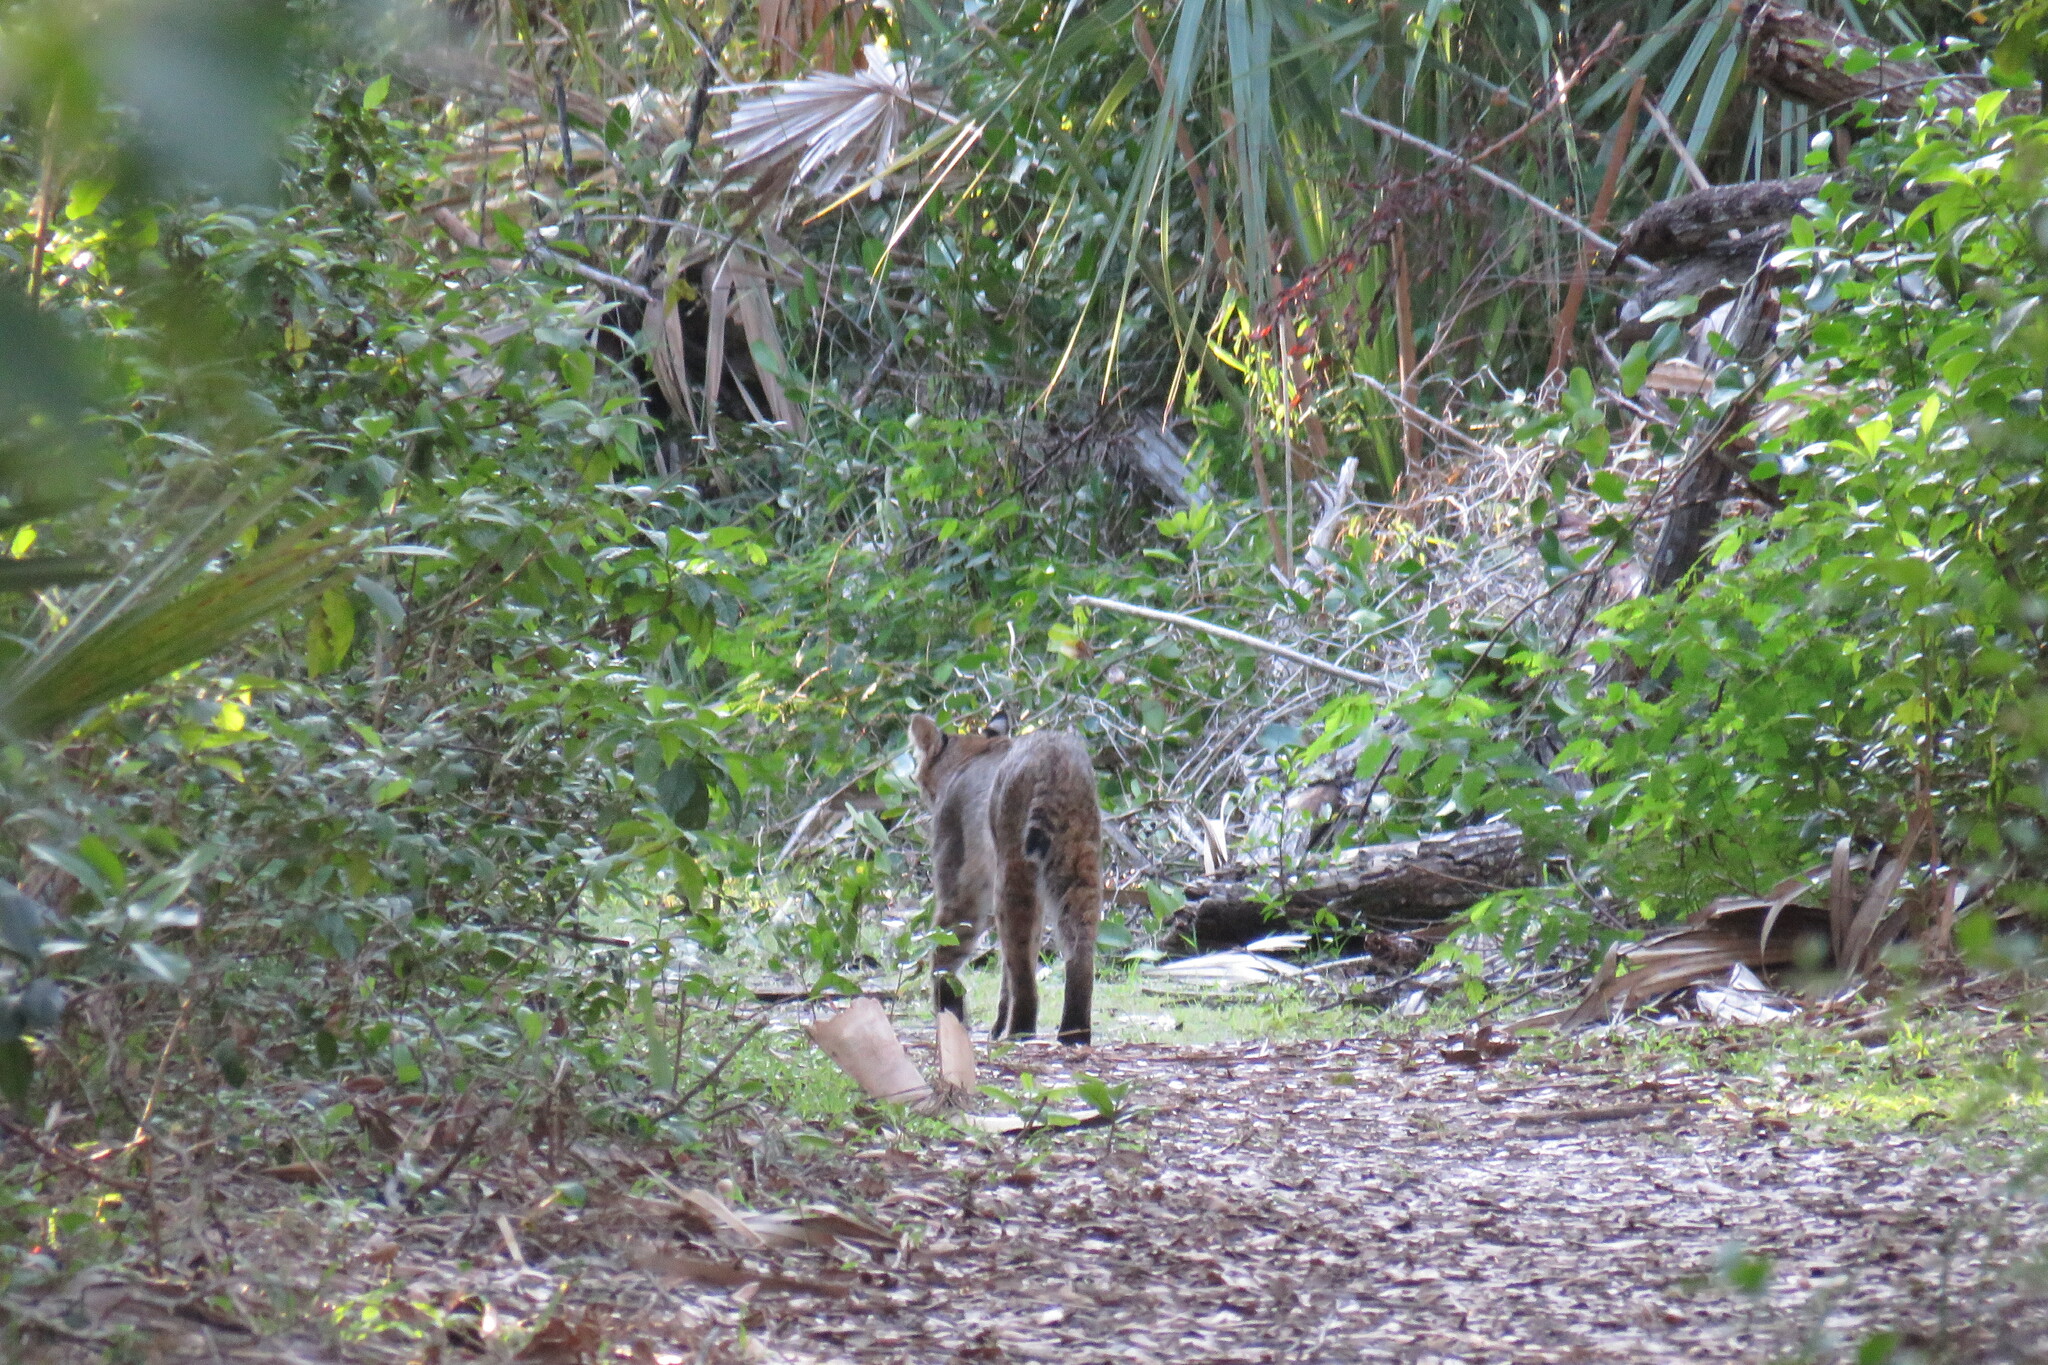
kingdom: Animalia
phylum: Chordata
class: Mammalia
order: Carnivora
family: Felidae
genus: Lynx
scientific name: Lynx rufus
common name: Bobcat
